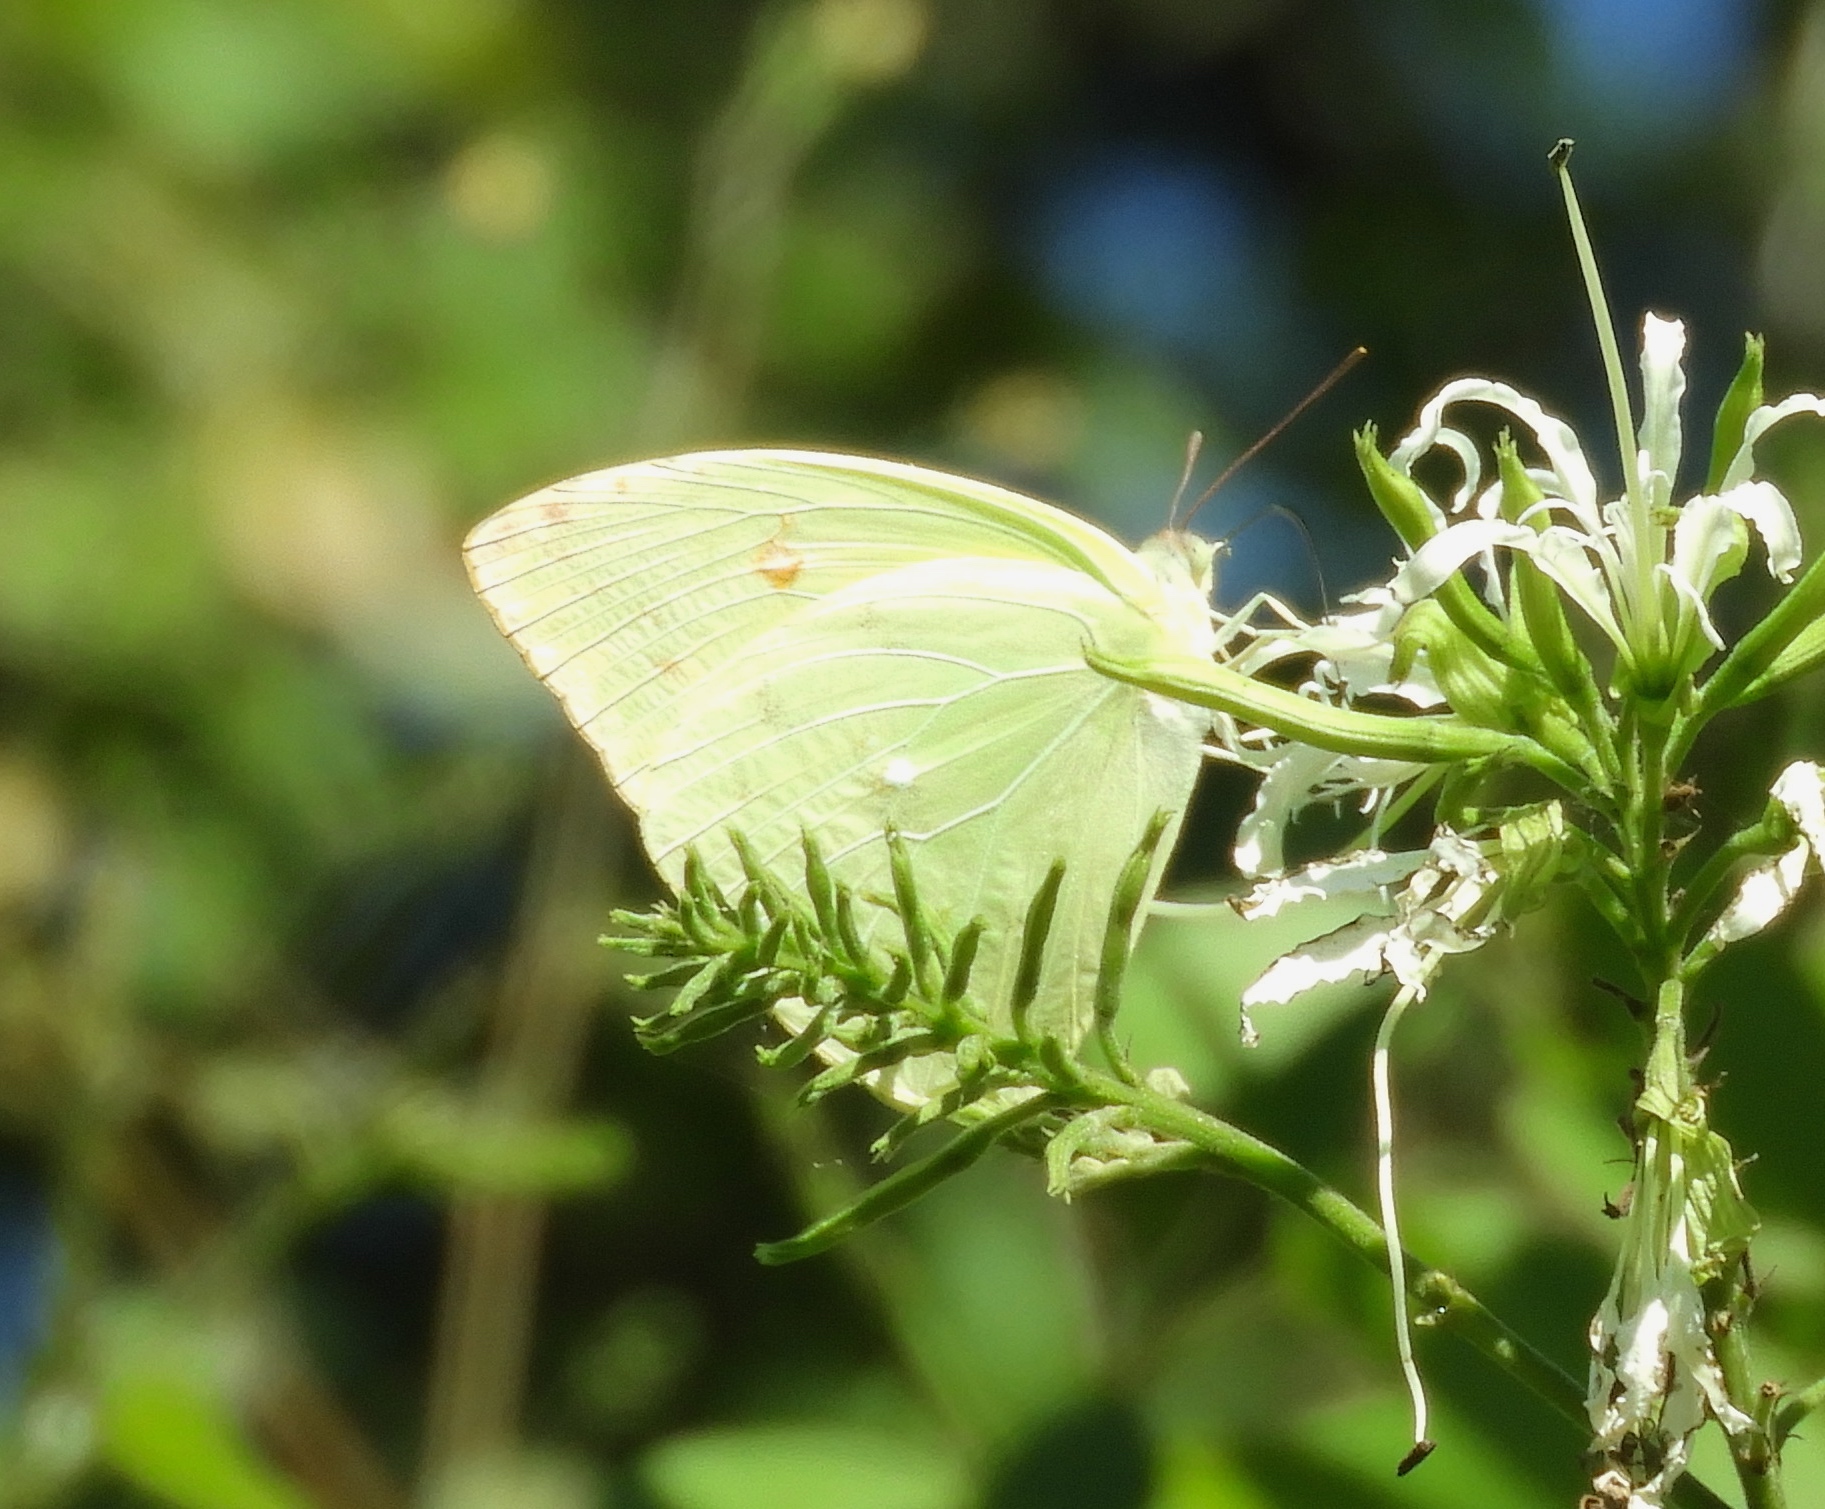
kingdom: Animalia
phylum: Arthropoda
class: Insecta
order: Lepidoptera
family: Pieridae
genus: Aphrissa
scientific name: Aphrissa statira
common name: Statira sulphur
